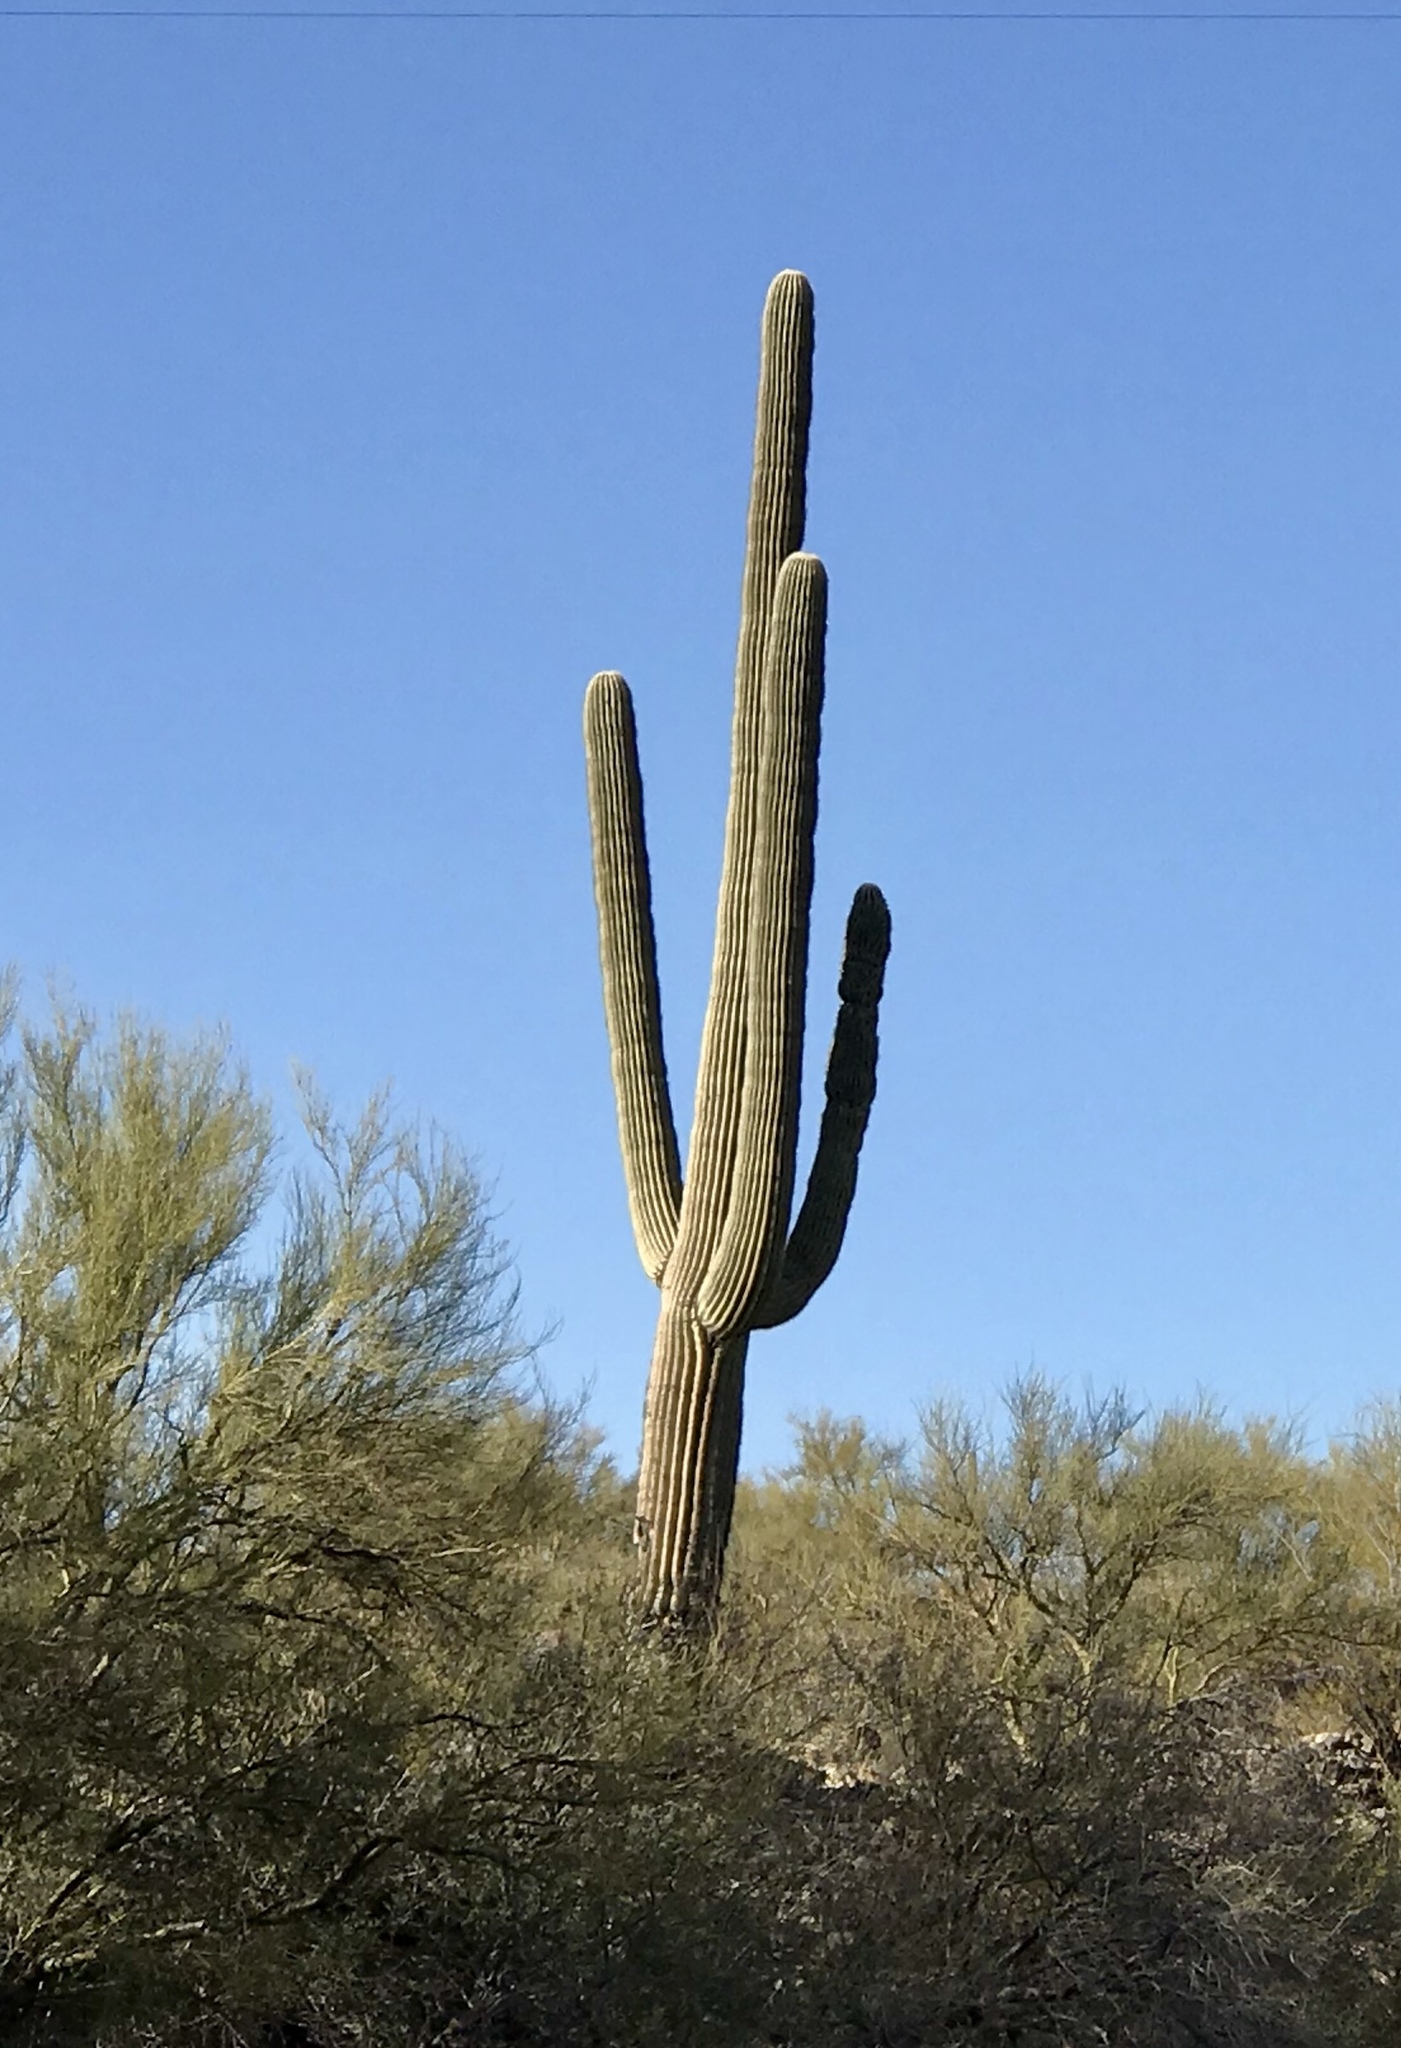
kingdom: Plantae
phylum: Tracheophyta
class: Magnoliopsida
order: Caryophyllales
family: Cactaceae
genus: Carnegiea
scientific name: Carnegiea gigantea
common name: Saguaro
